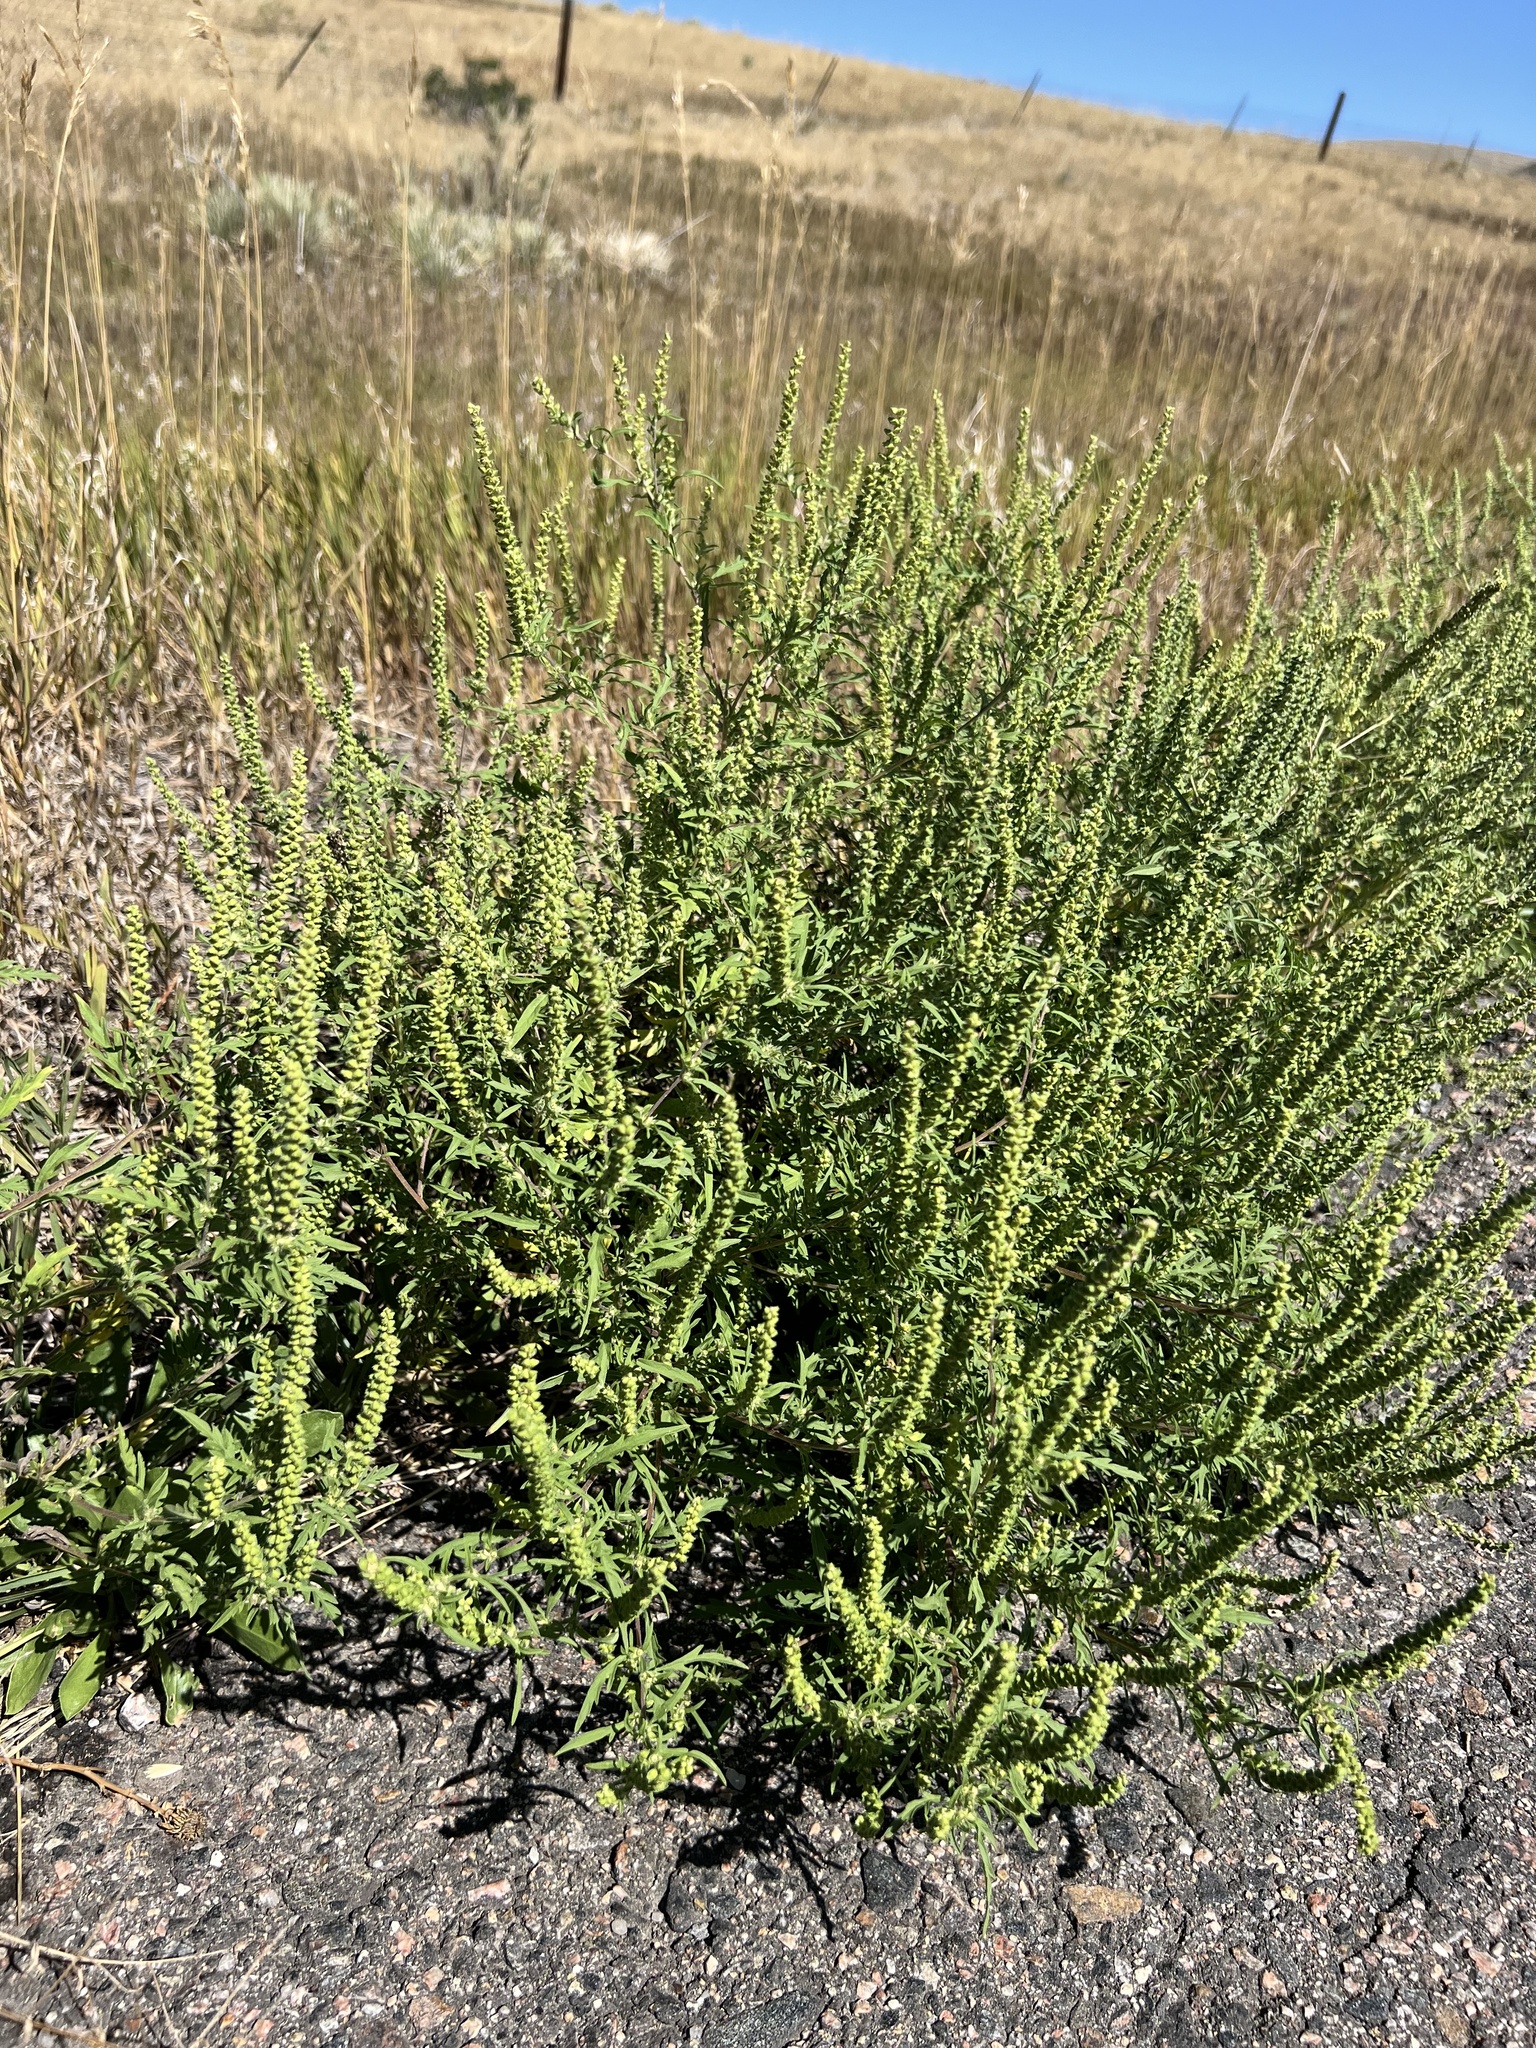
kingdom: Plantae
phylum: Tracheophyta
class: Magnoliopsida
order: Asterales
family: Asteraceae
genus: Ambrosia
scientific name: Ambrosia psilostachya
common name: Perennial ragweed
